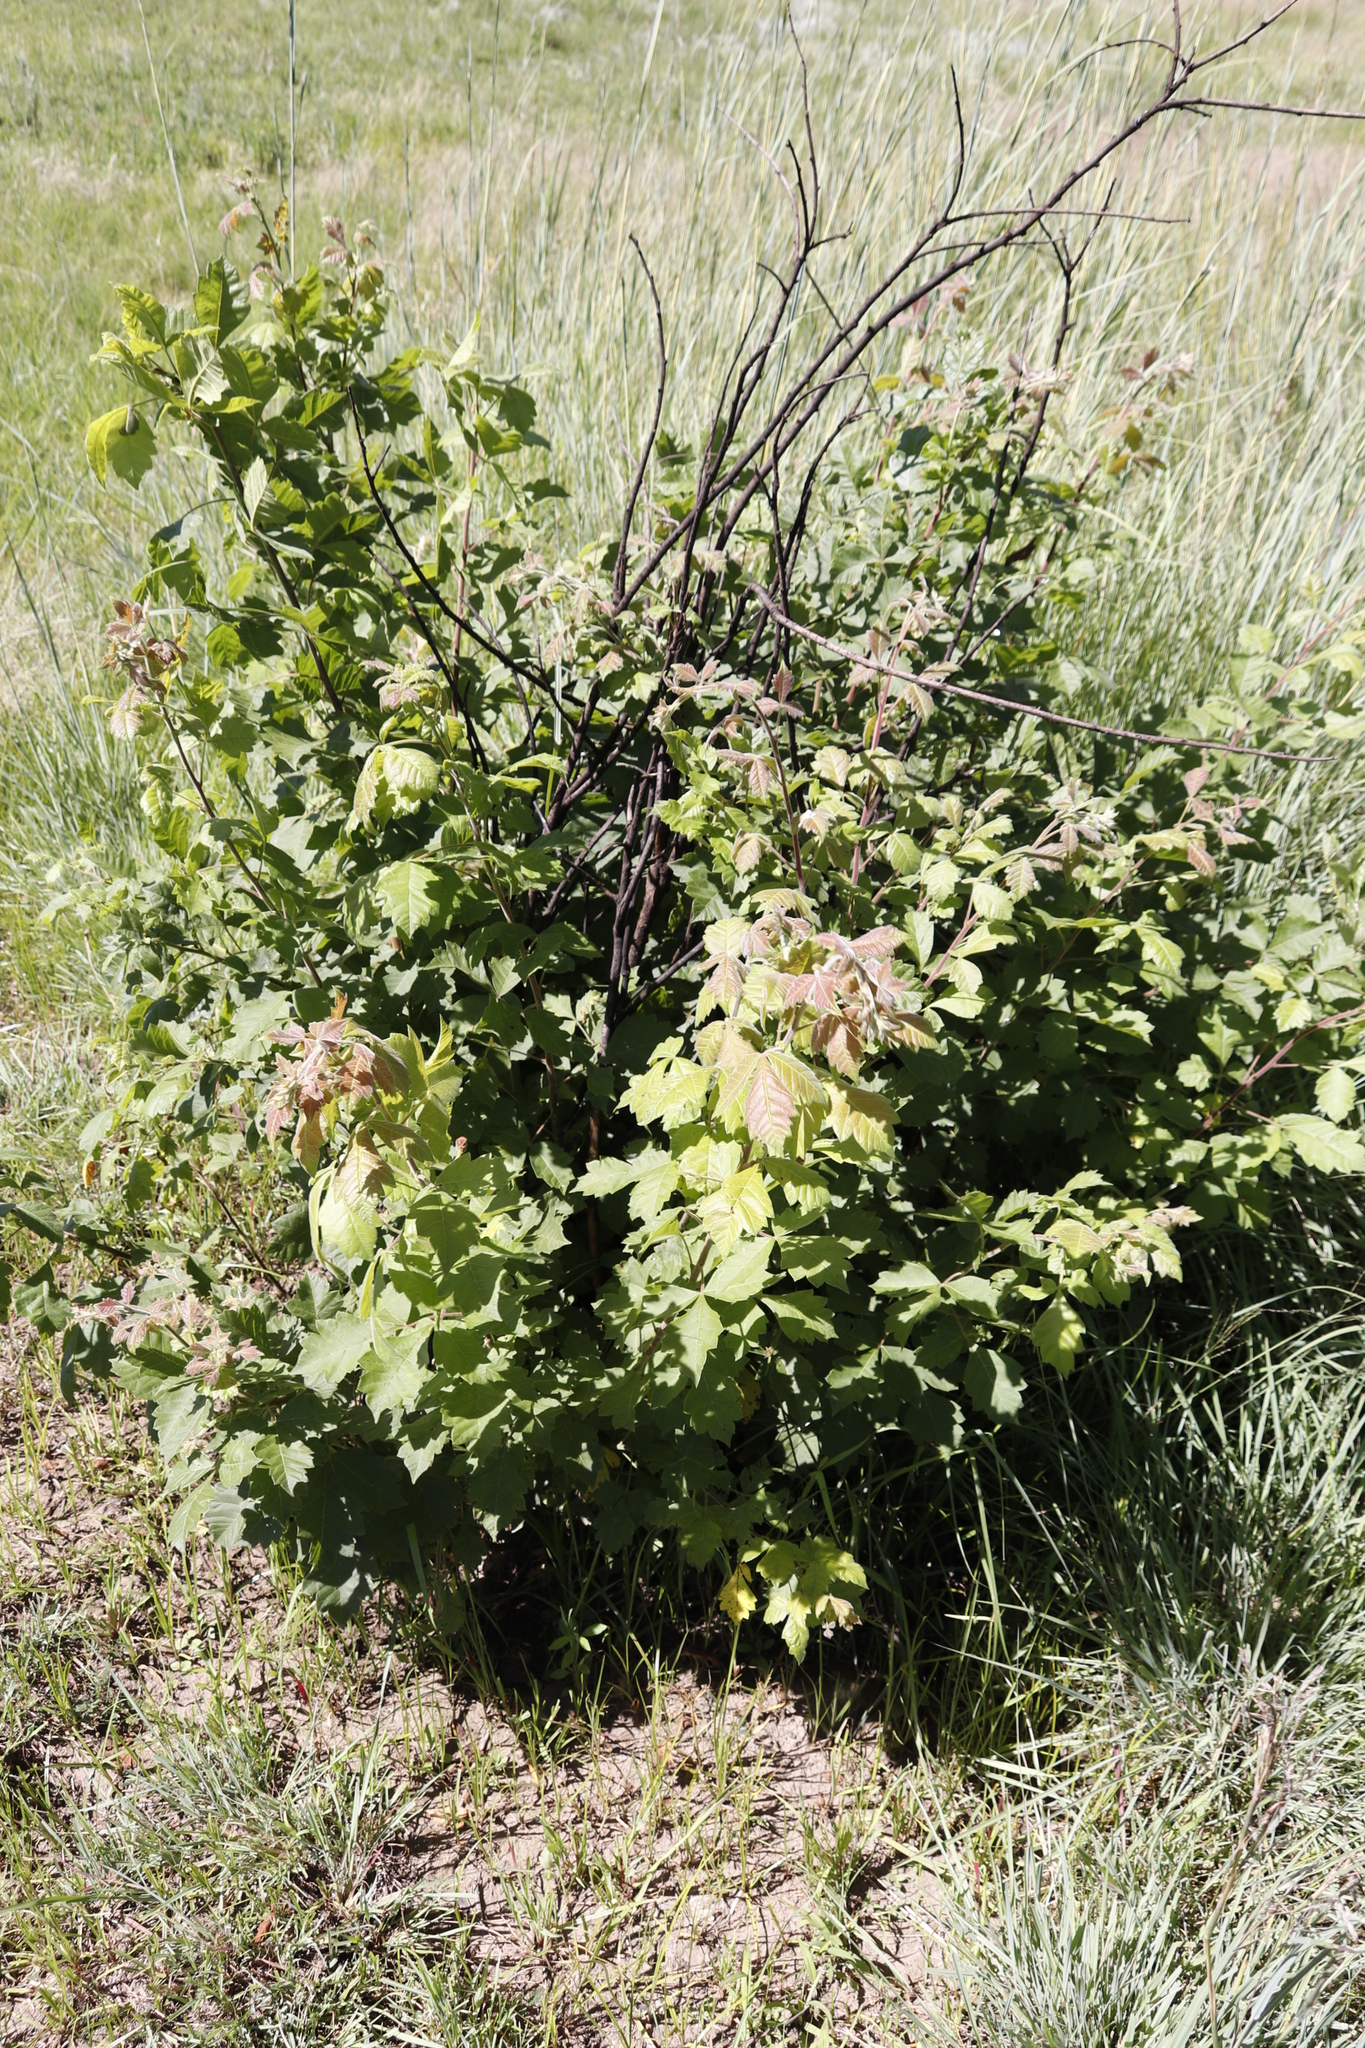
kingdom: Plantae
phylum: Tracheophyta
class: Magnoliopsida
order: Sapindales
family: Anacardiaceae
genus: Searsia
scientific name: Searsia dentata
